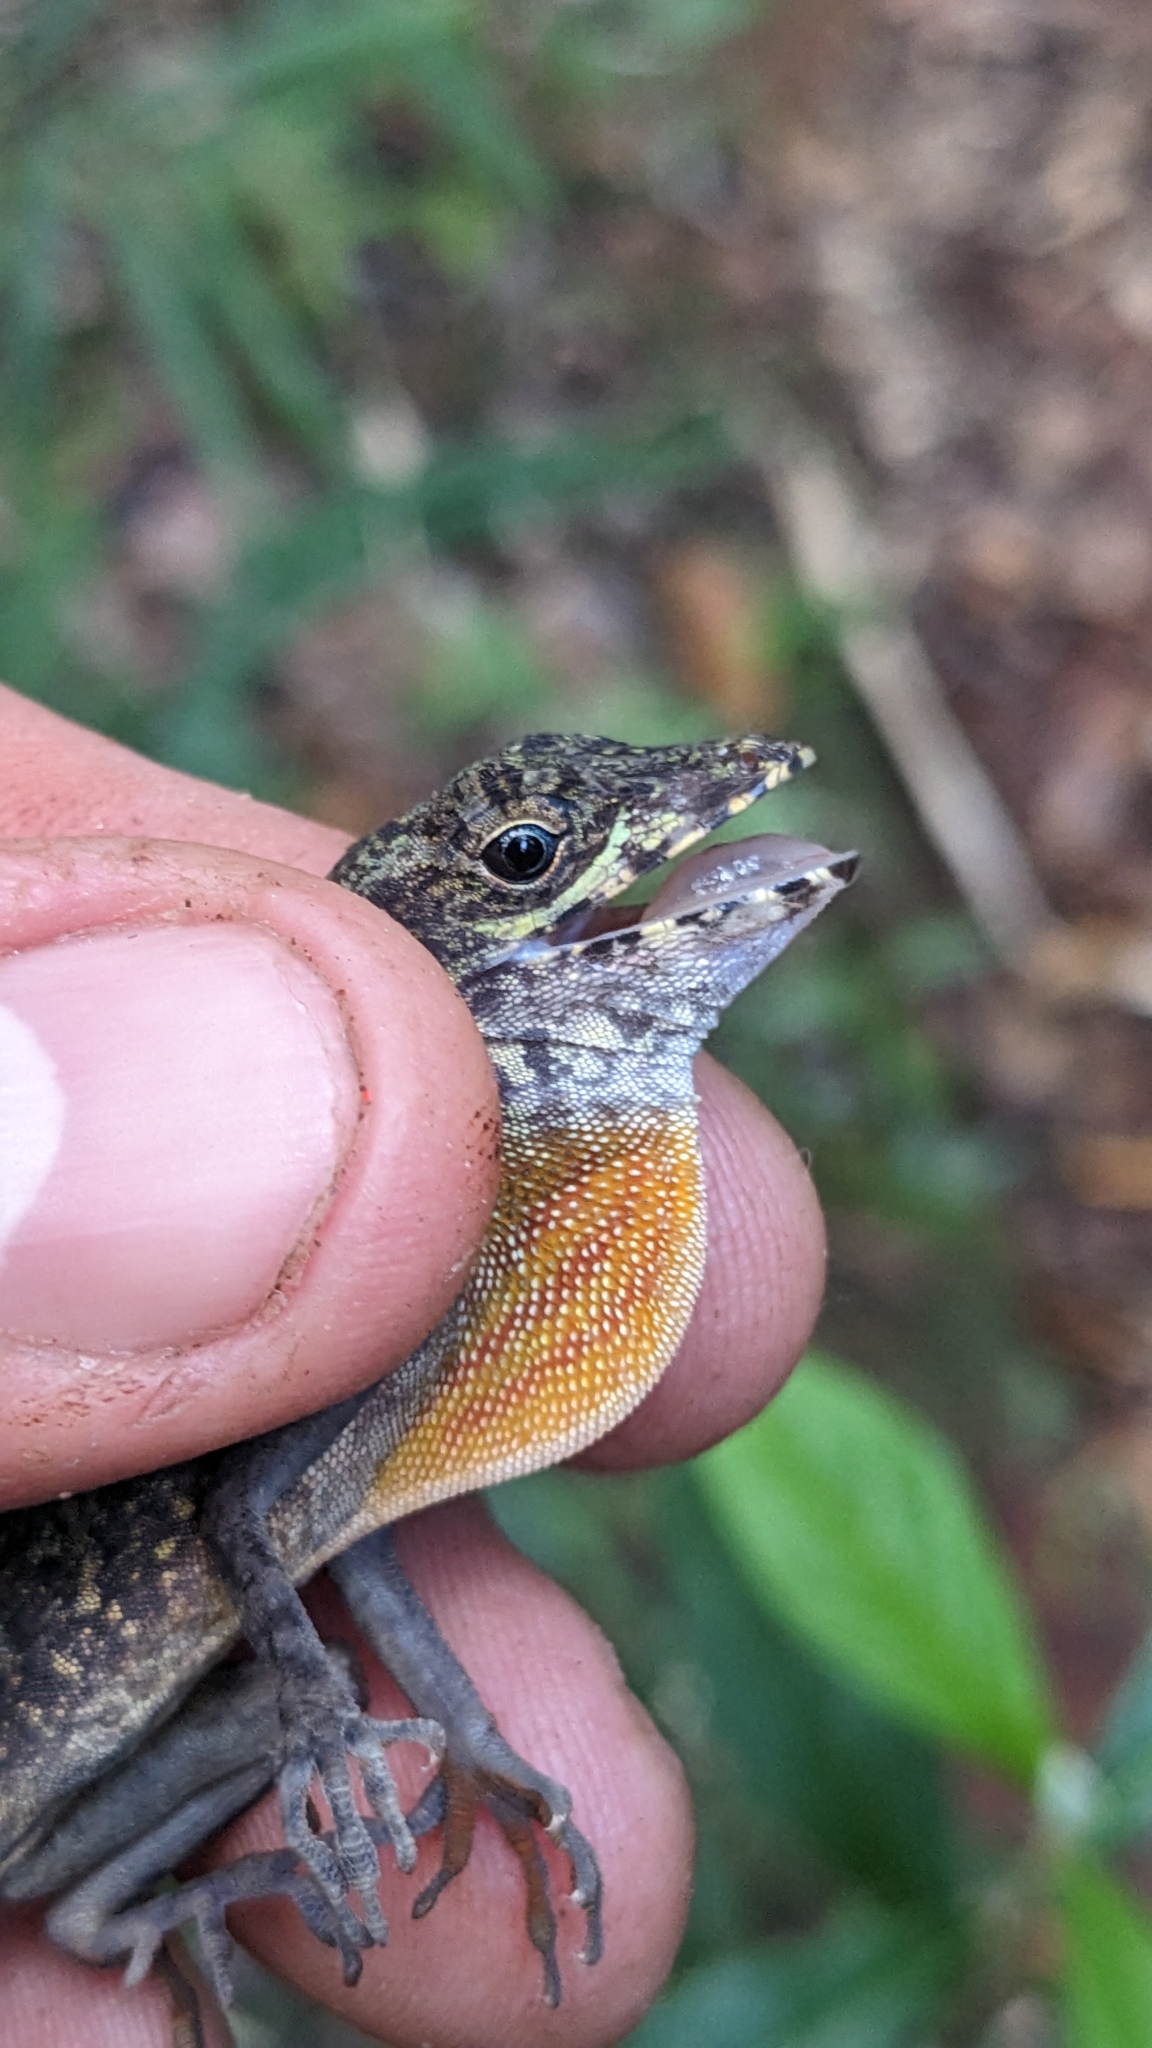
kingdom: Animalia
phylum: Chordata
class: Squamata
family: Dactyloidae
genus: Anolis
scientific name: Anolis rubribarbus
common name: Sagua de tanamo anole
